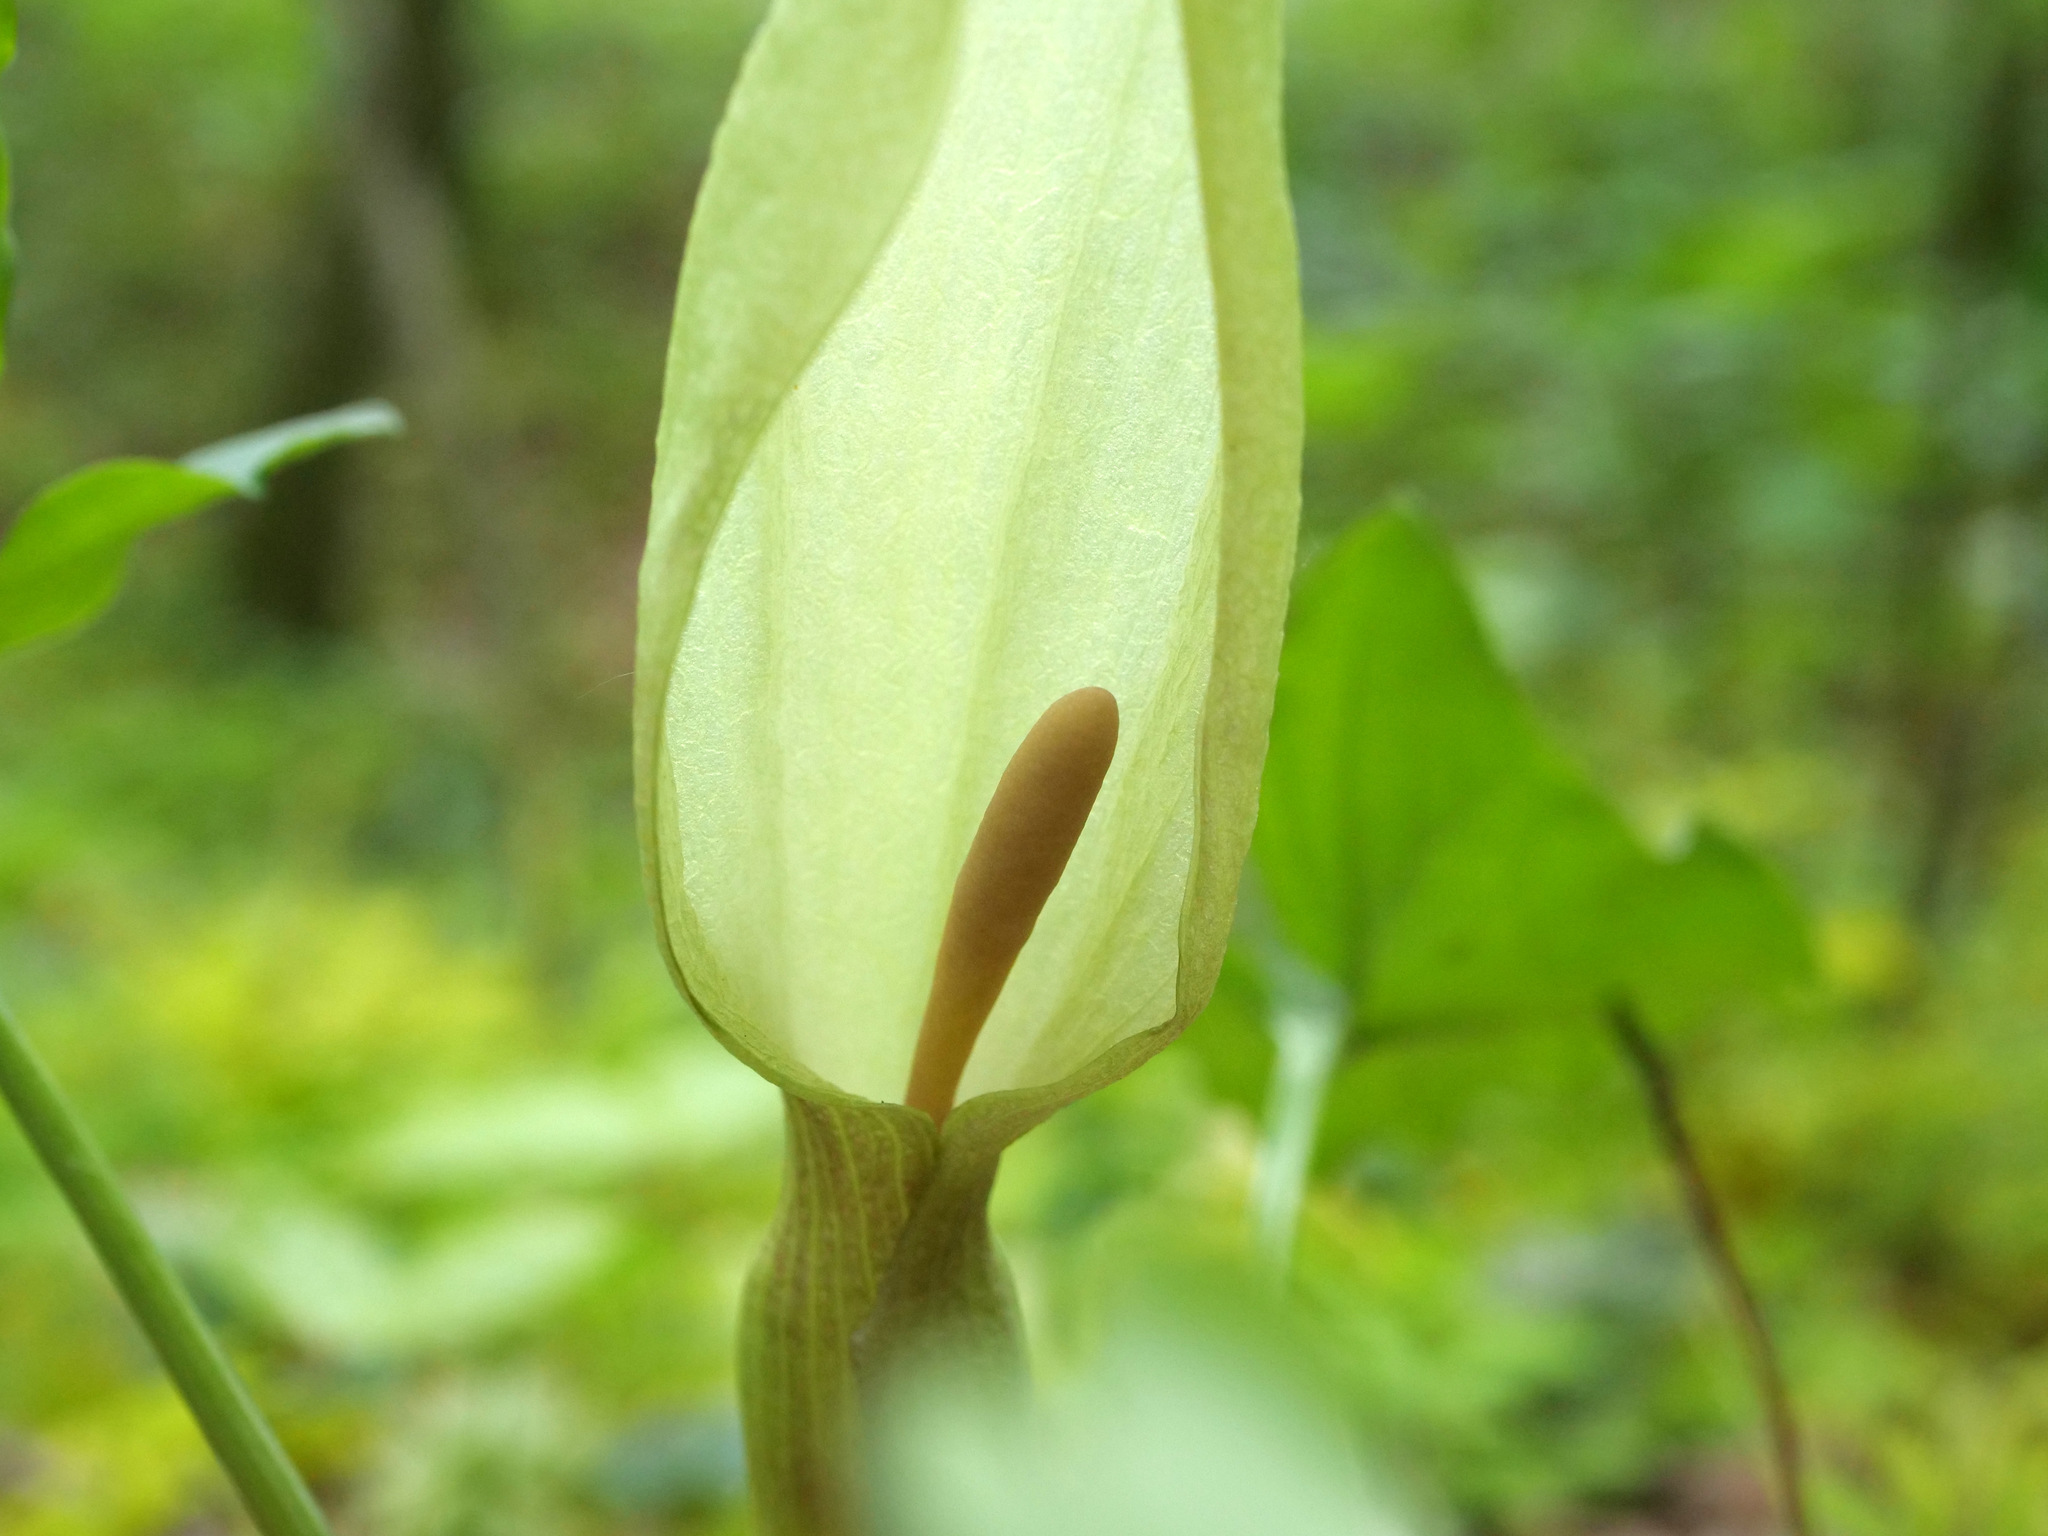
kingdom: Plantae
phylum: Tracheophyta
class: Liliopsida
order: Alismatales
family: Araceae
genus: Arum
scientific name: Arum maculatum
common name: Lords-and-ladies
